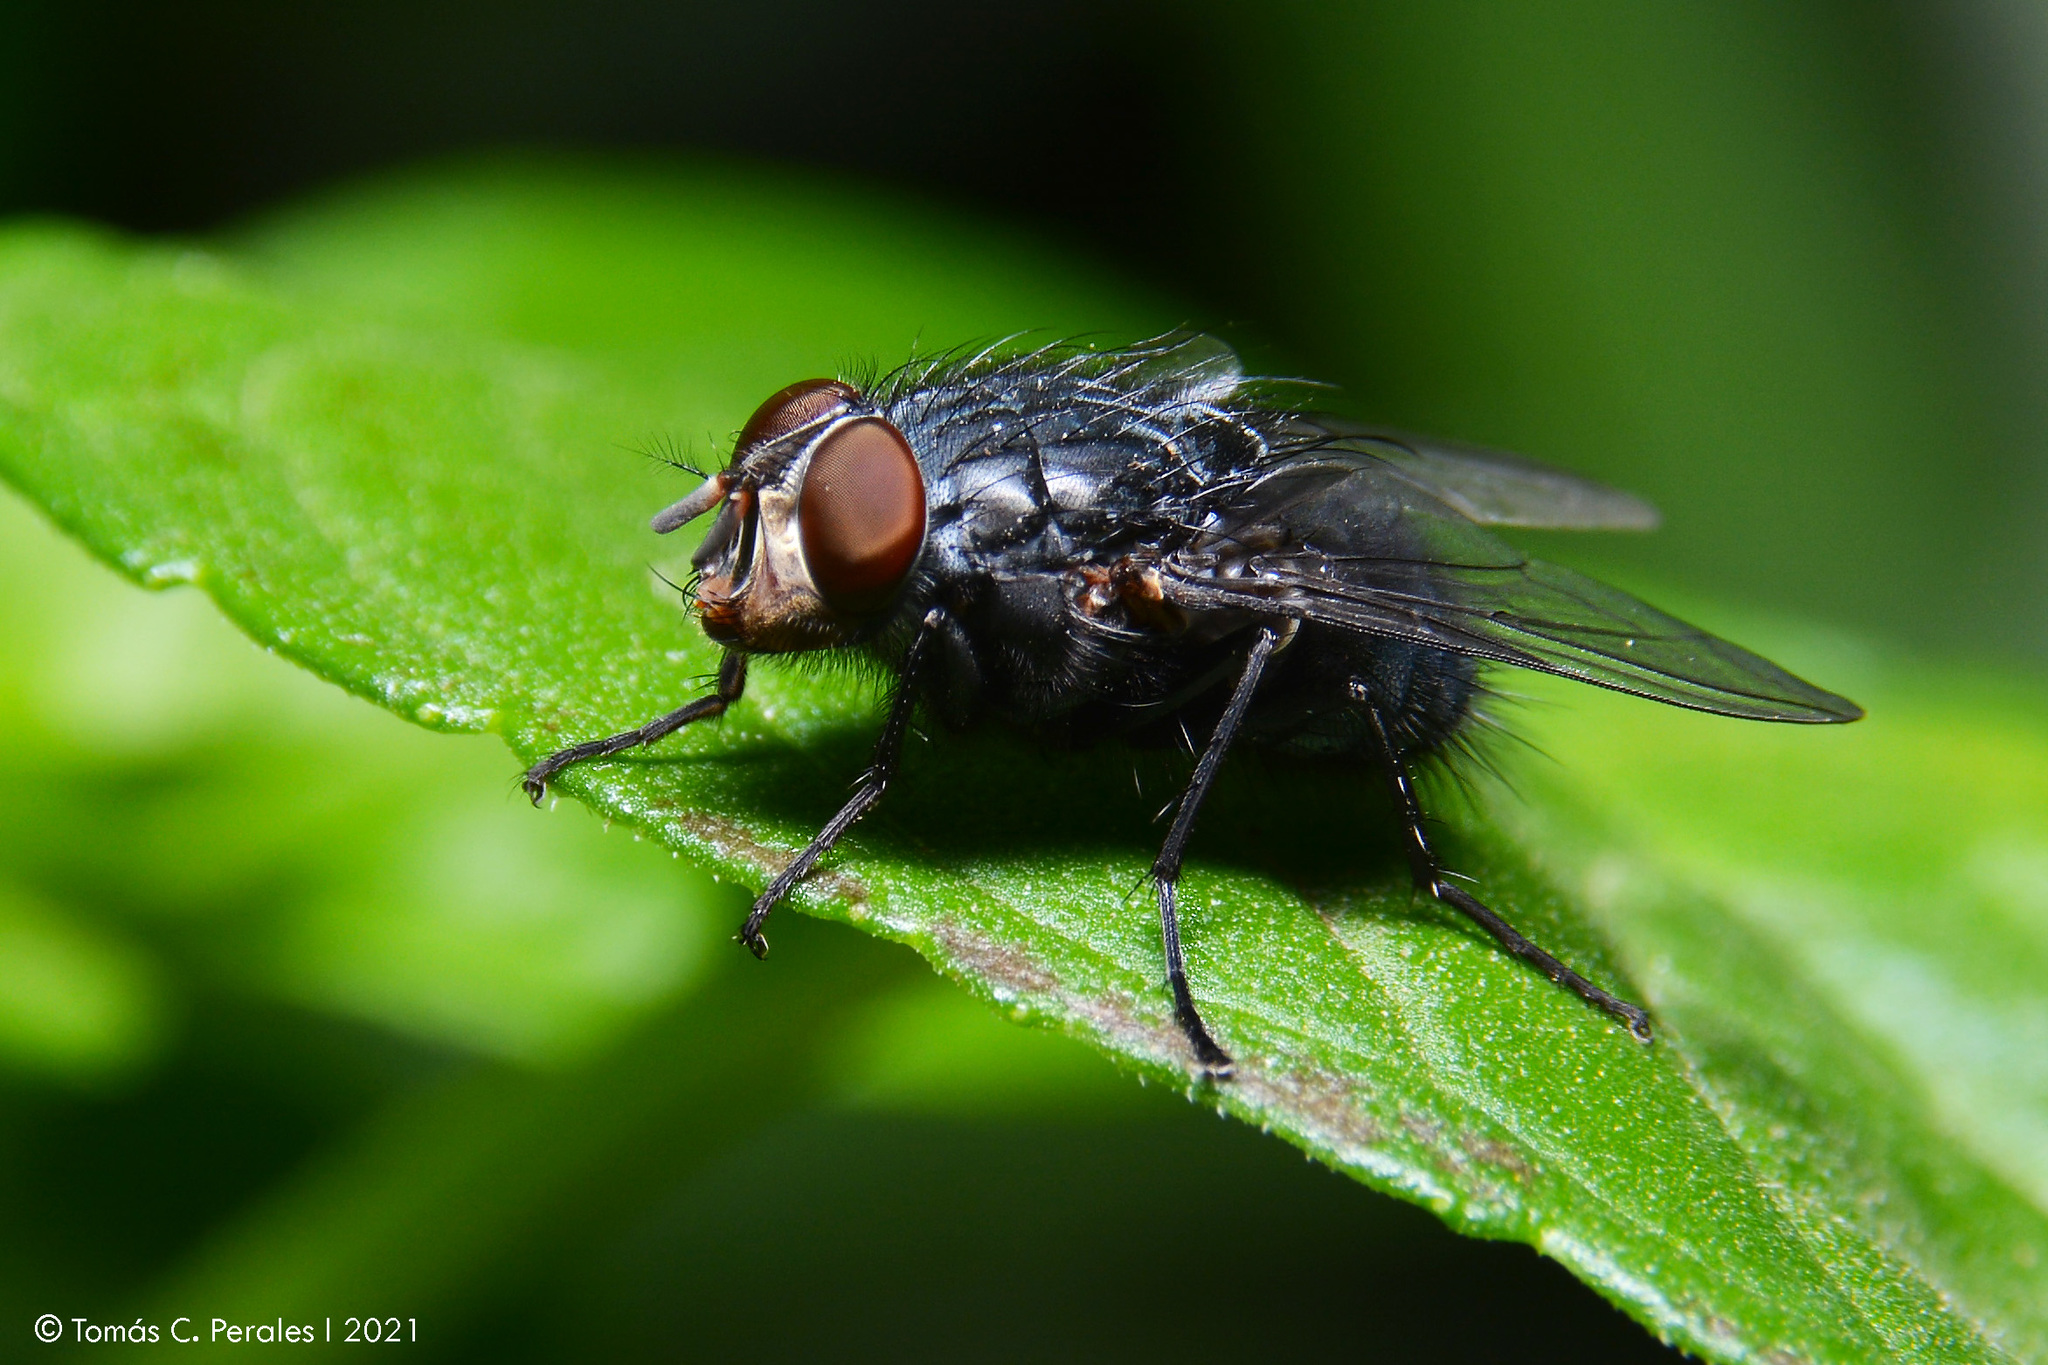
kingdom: Animalia
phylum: Arthropoda
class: Insecta
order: Diptera
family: Calliphoridae
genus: Calliphora
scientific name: Calliphora vicina
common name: Common blow flie
